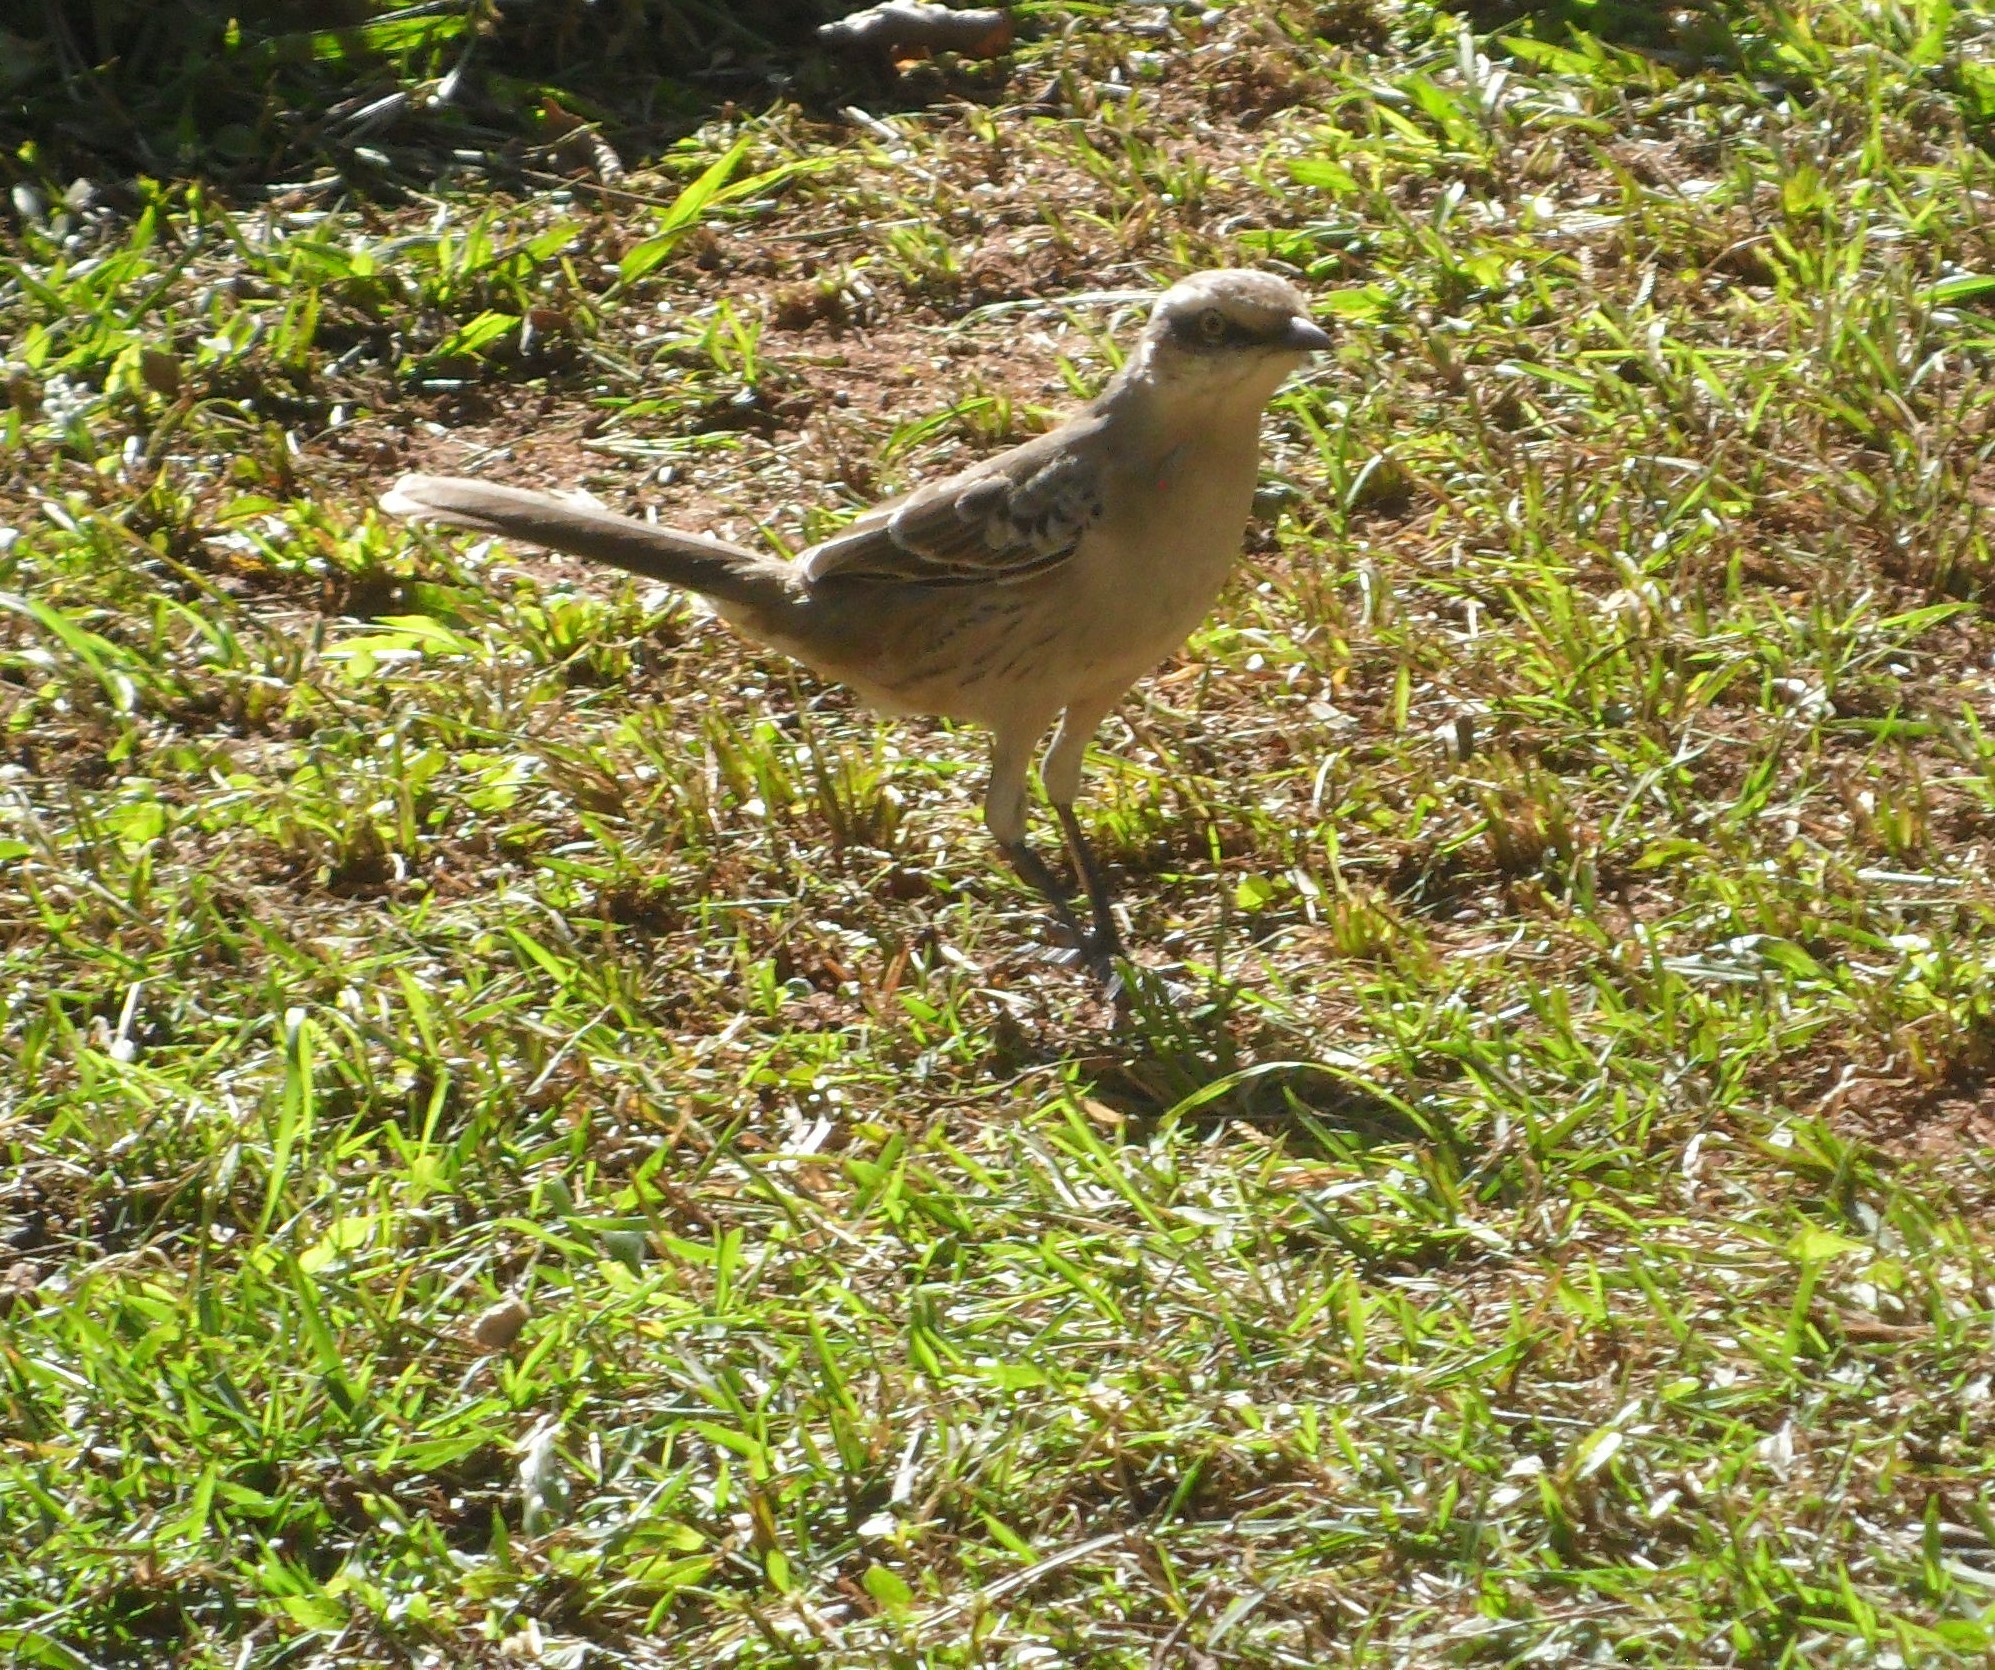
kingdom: Animalia
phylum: Chordata
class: Aves
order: Passeriformes
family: Mimidae
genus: Mimus
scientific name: Mimus saturninus
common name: Chalk-browed mockingbird
